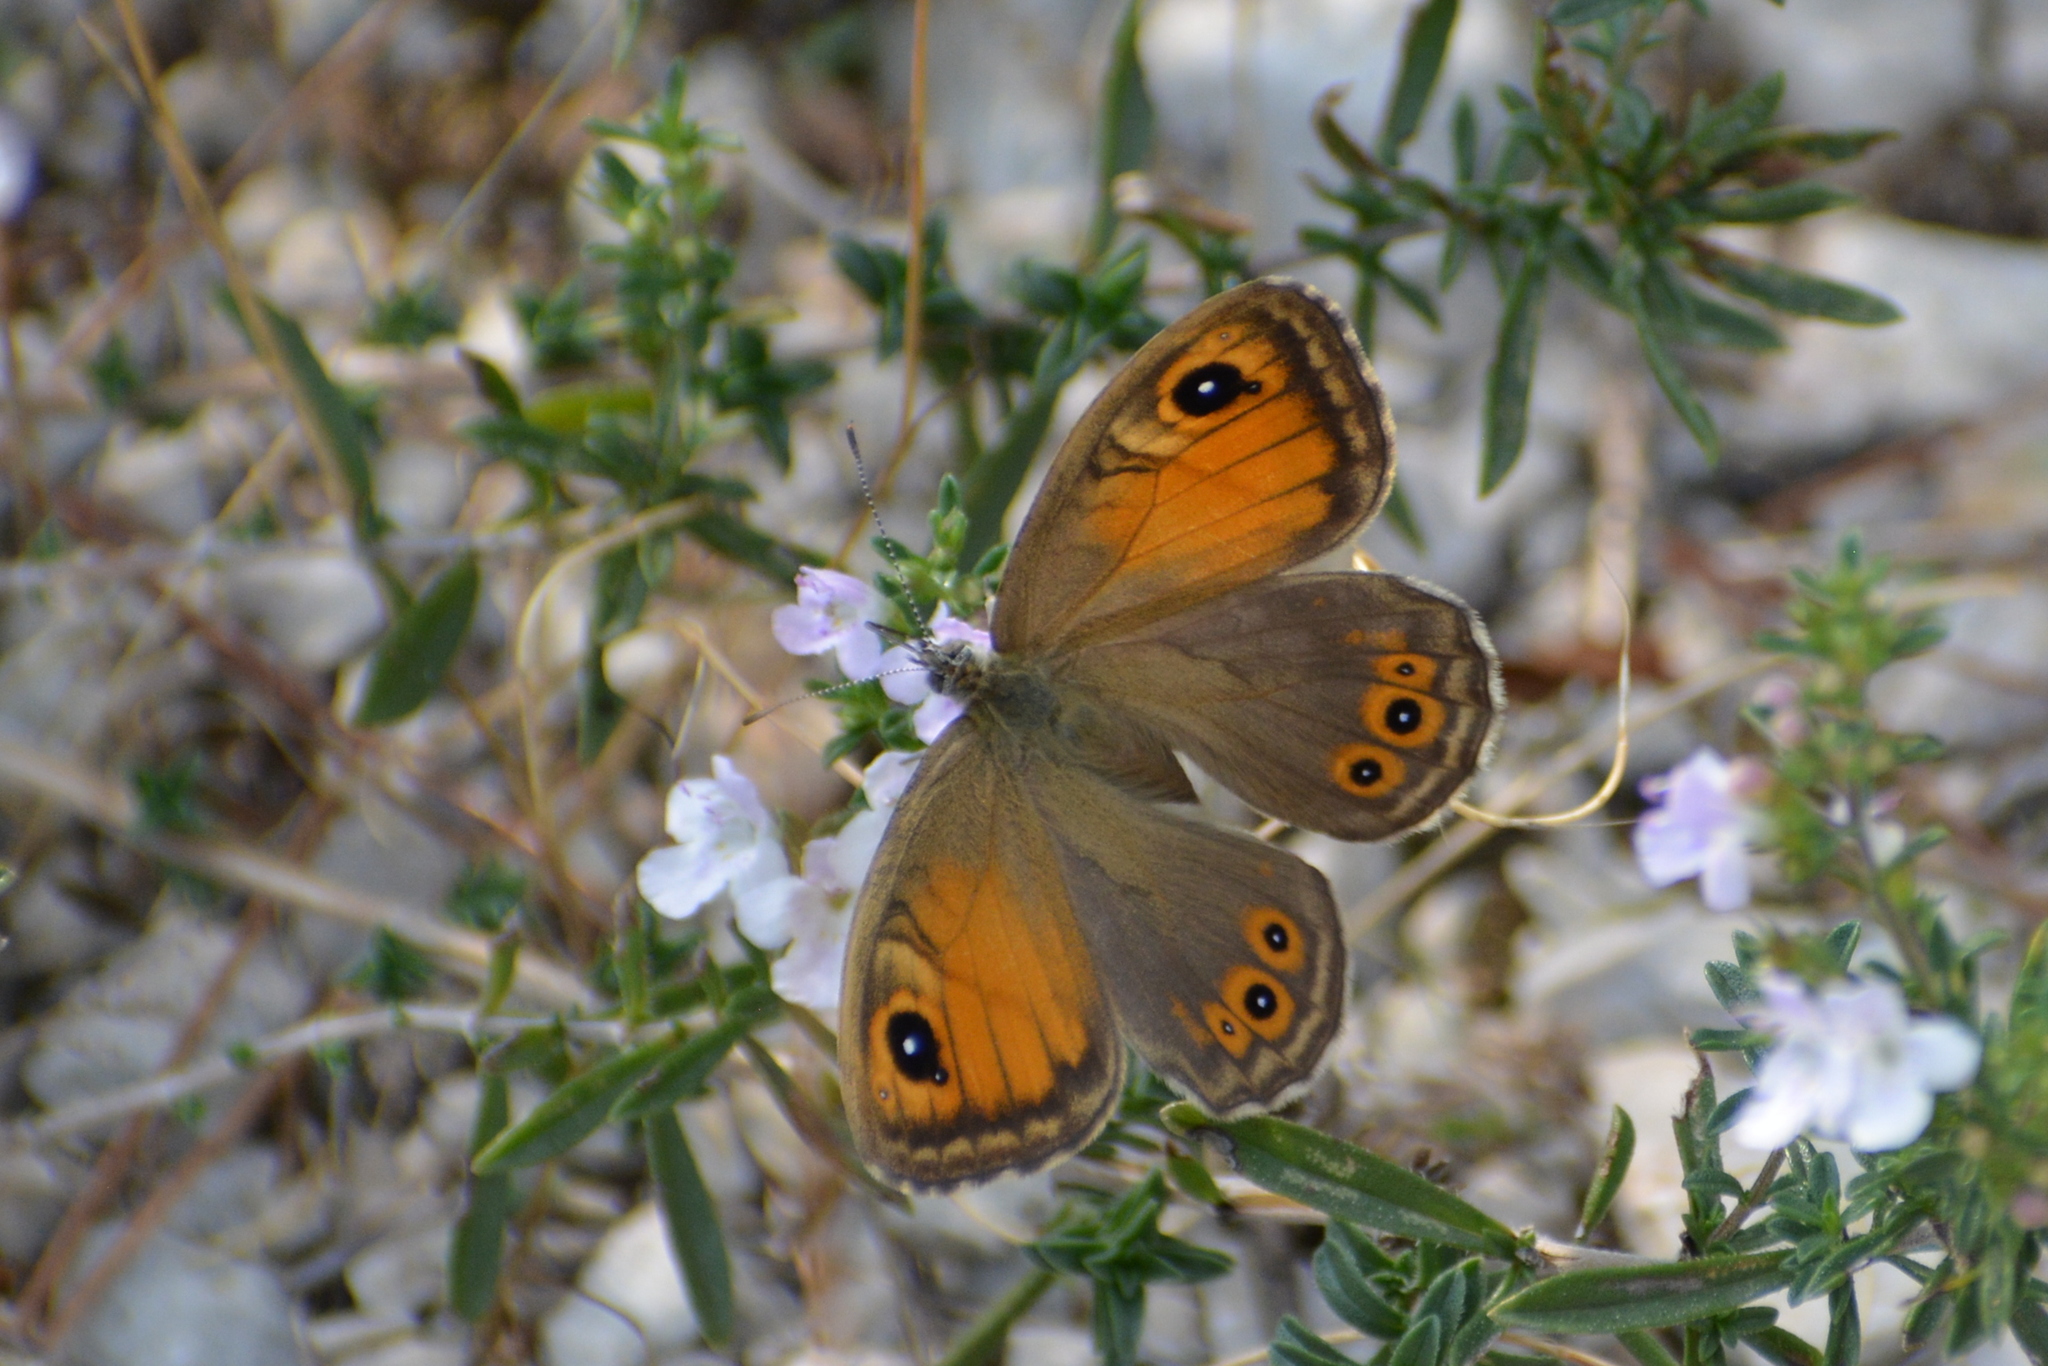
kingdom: Animalia
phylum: Arthropoda
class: Insecta
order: Lepidoptera
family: Nymphalidae
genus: Pararge
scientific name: Pararge Lasiommata maera
